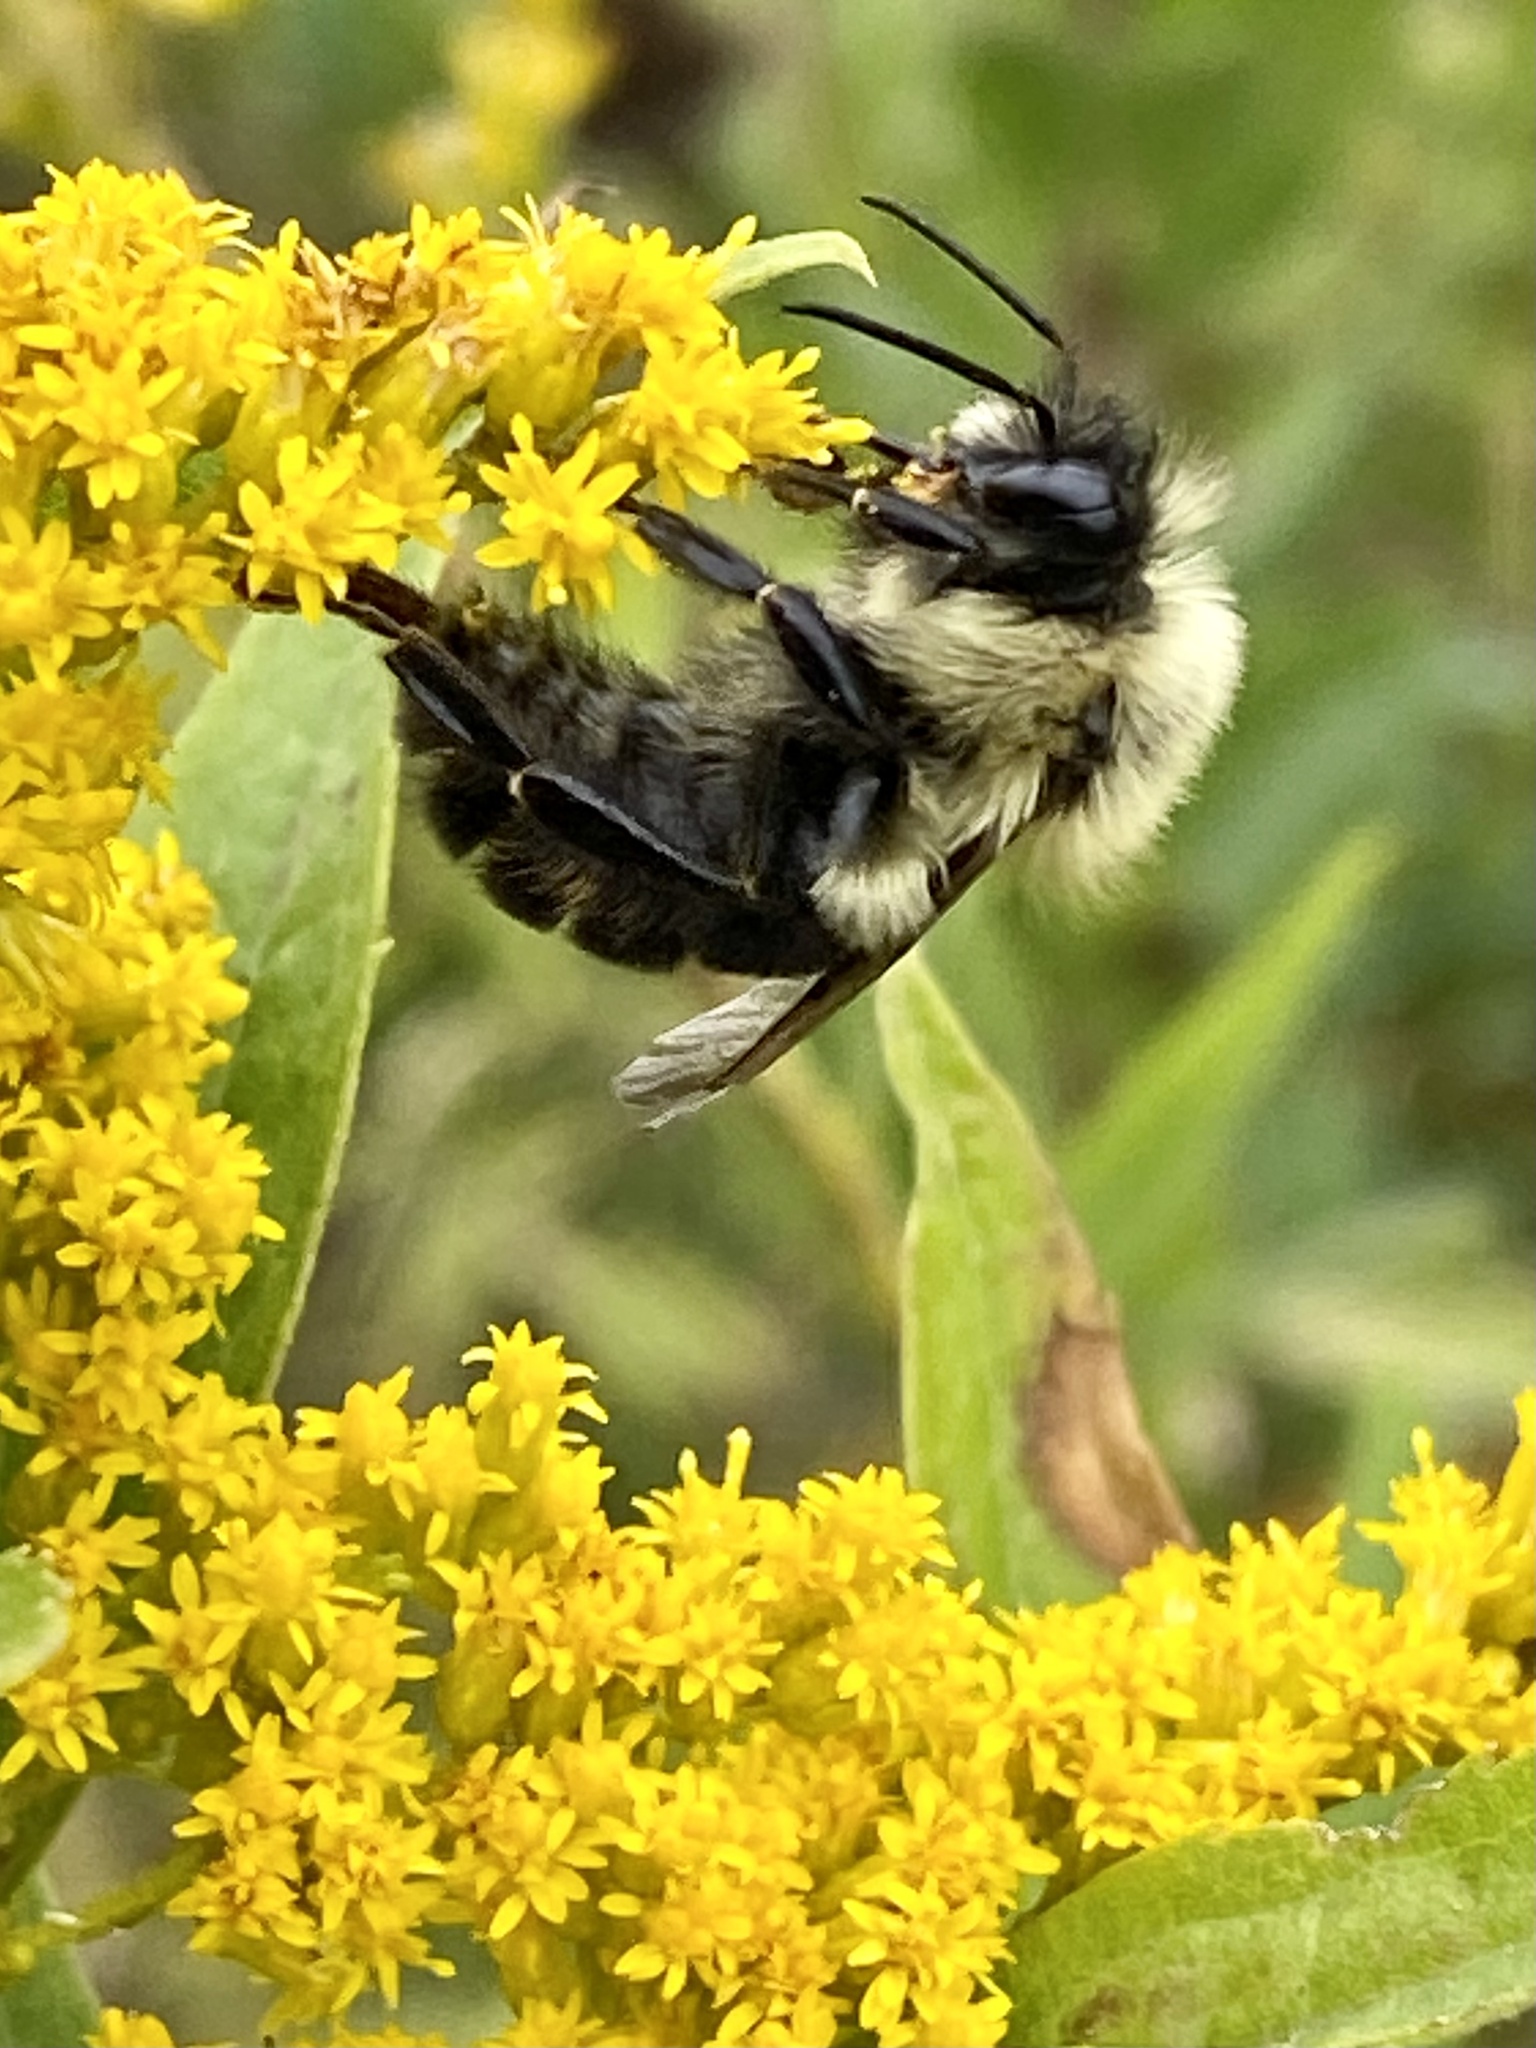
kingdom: Animalia
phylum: Arthropoda
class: Insecta
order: Hymenoptera
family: Apidae
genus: Bombus
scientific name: Bombus impatiens
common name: Common eastern bumble bee
